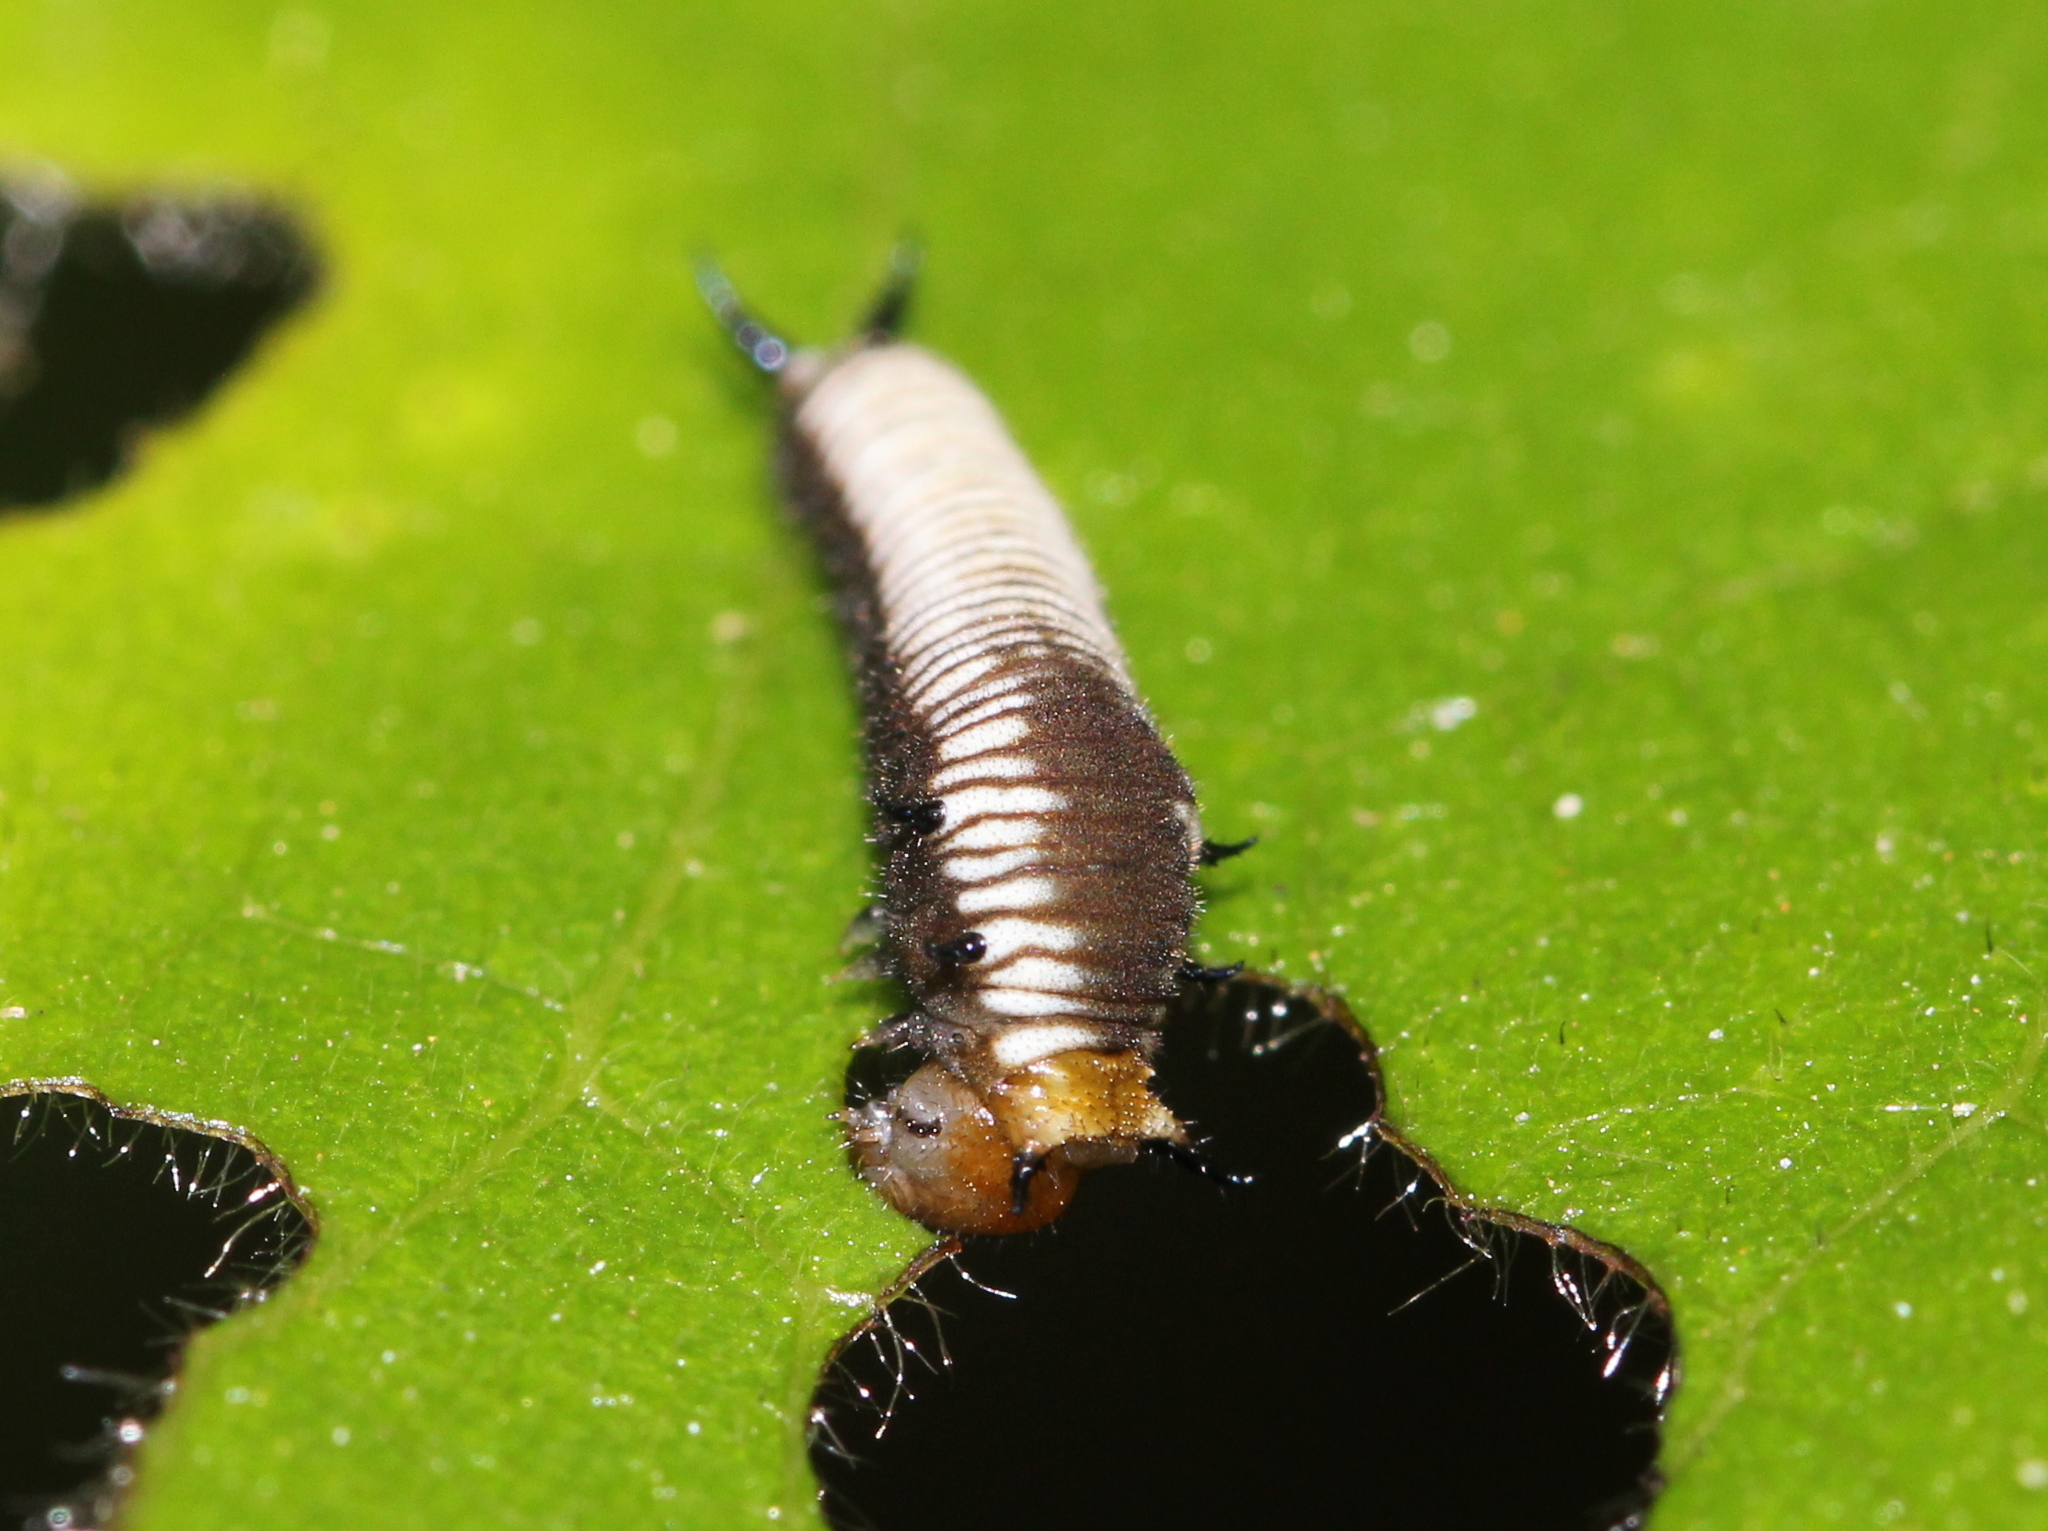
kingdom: Animalia
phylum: Arthropoda
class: Insecta
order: Lepidoptera
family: Papilionidae
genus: Graphium
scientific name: Graphium nomius
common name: Spot swordtail
